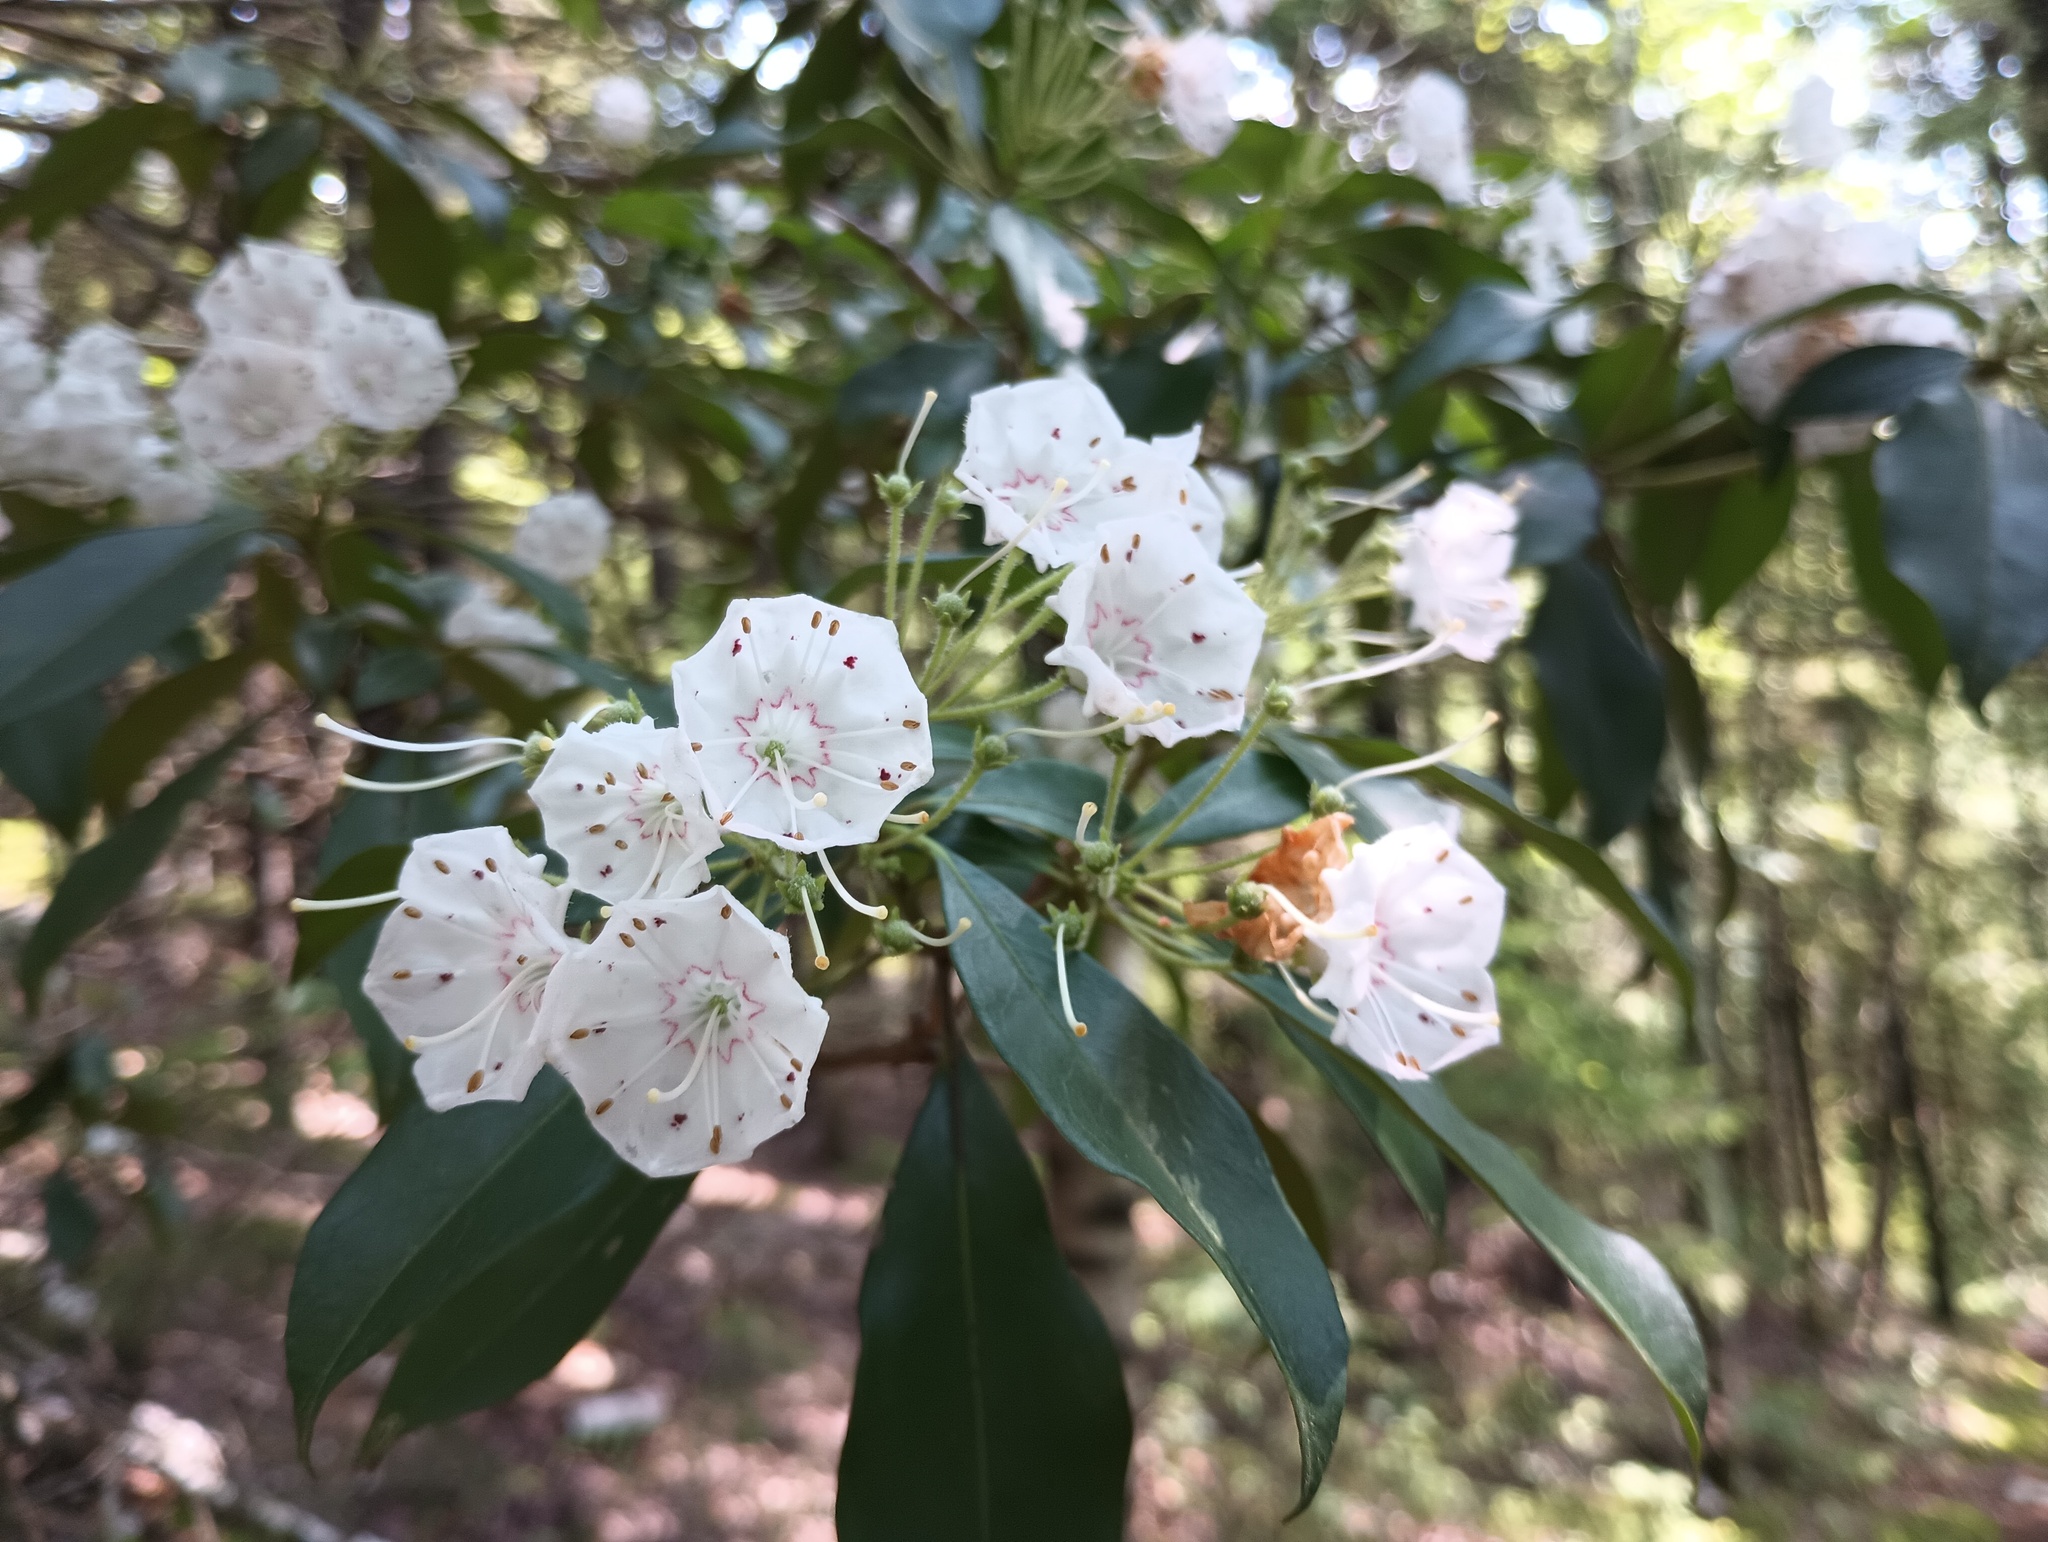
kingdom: Plantae
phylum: Tracheophyta
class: Magnoliopsida
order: Ericales
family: Ericaceae
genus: Kalmia
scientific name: Kalmia latifolia
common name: Mountain-laurel
